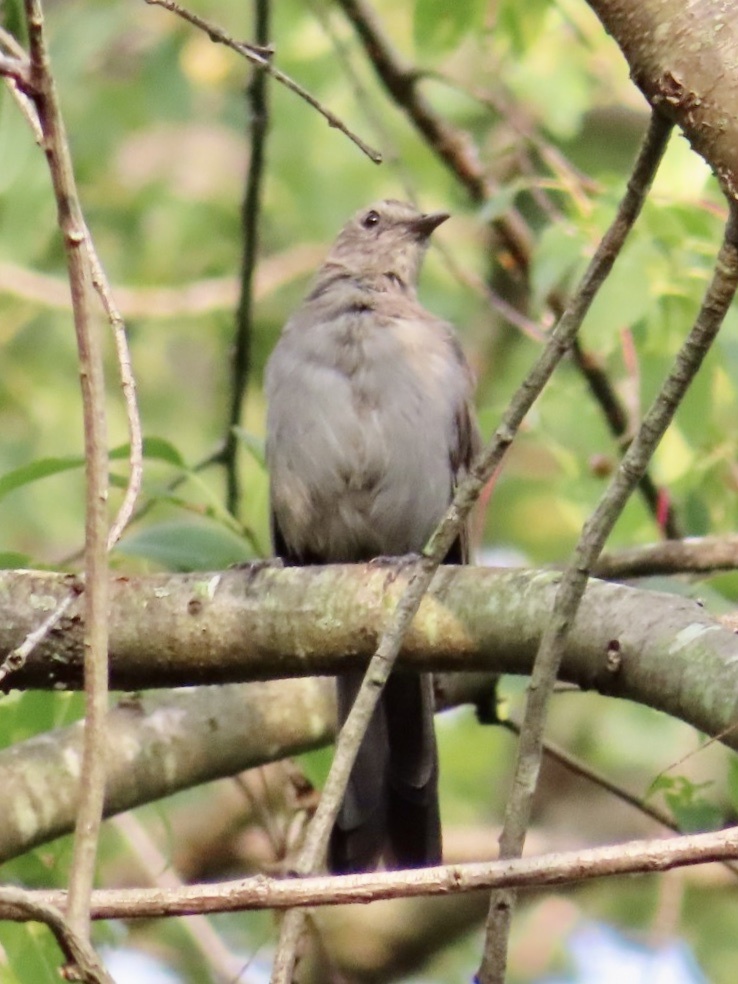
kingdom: Animalia
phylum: Chordata
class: Aves
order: Passeriformes
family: Mimidae
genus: Dumetella
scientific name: Dumetella carolinensis
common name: Gray catbird
